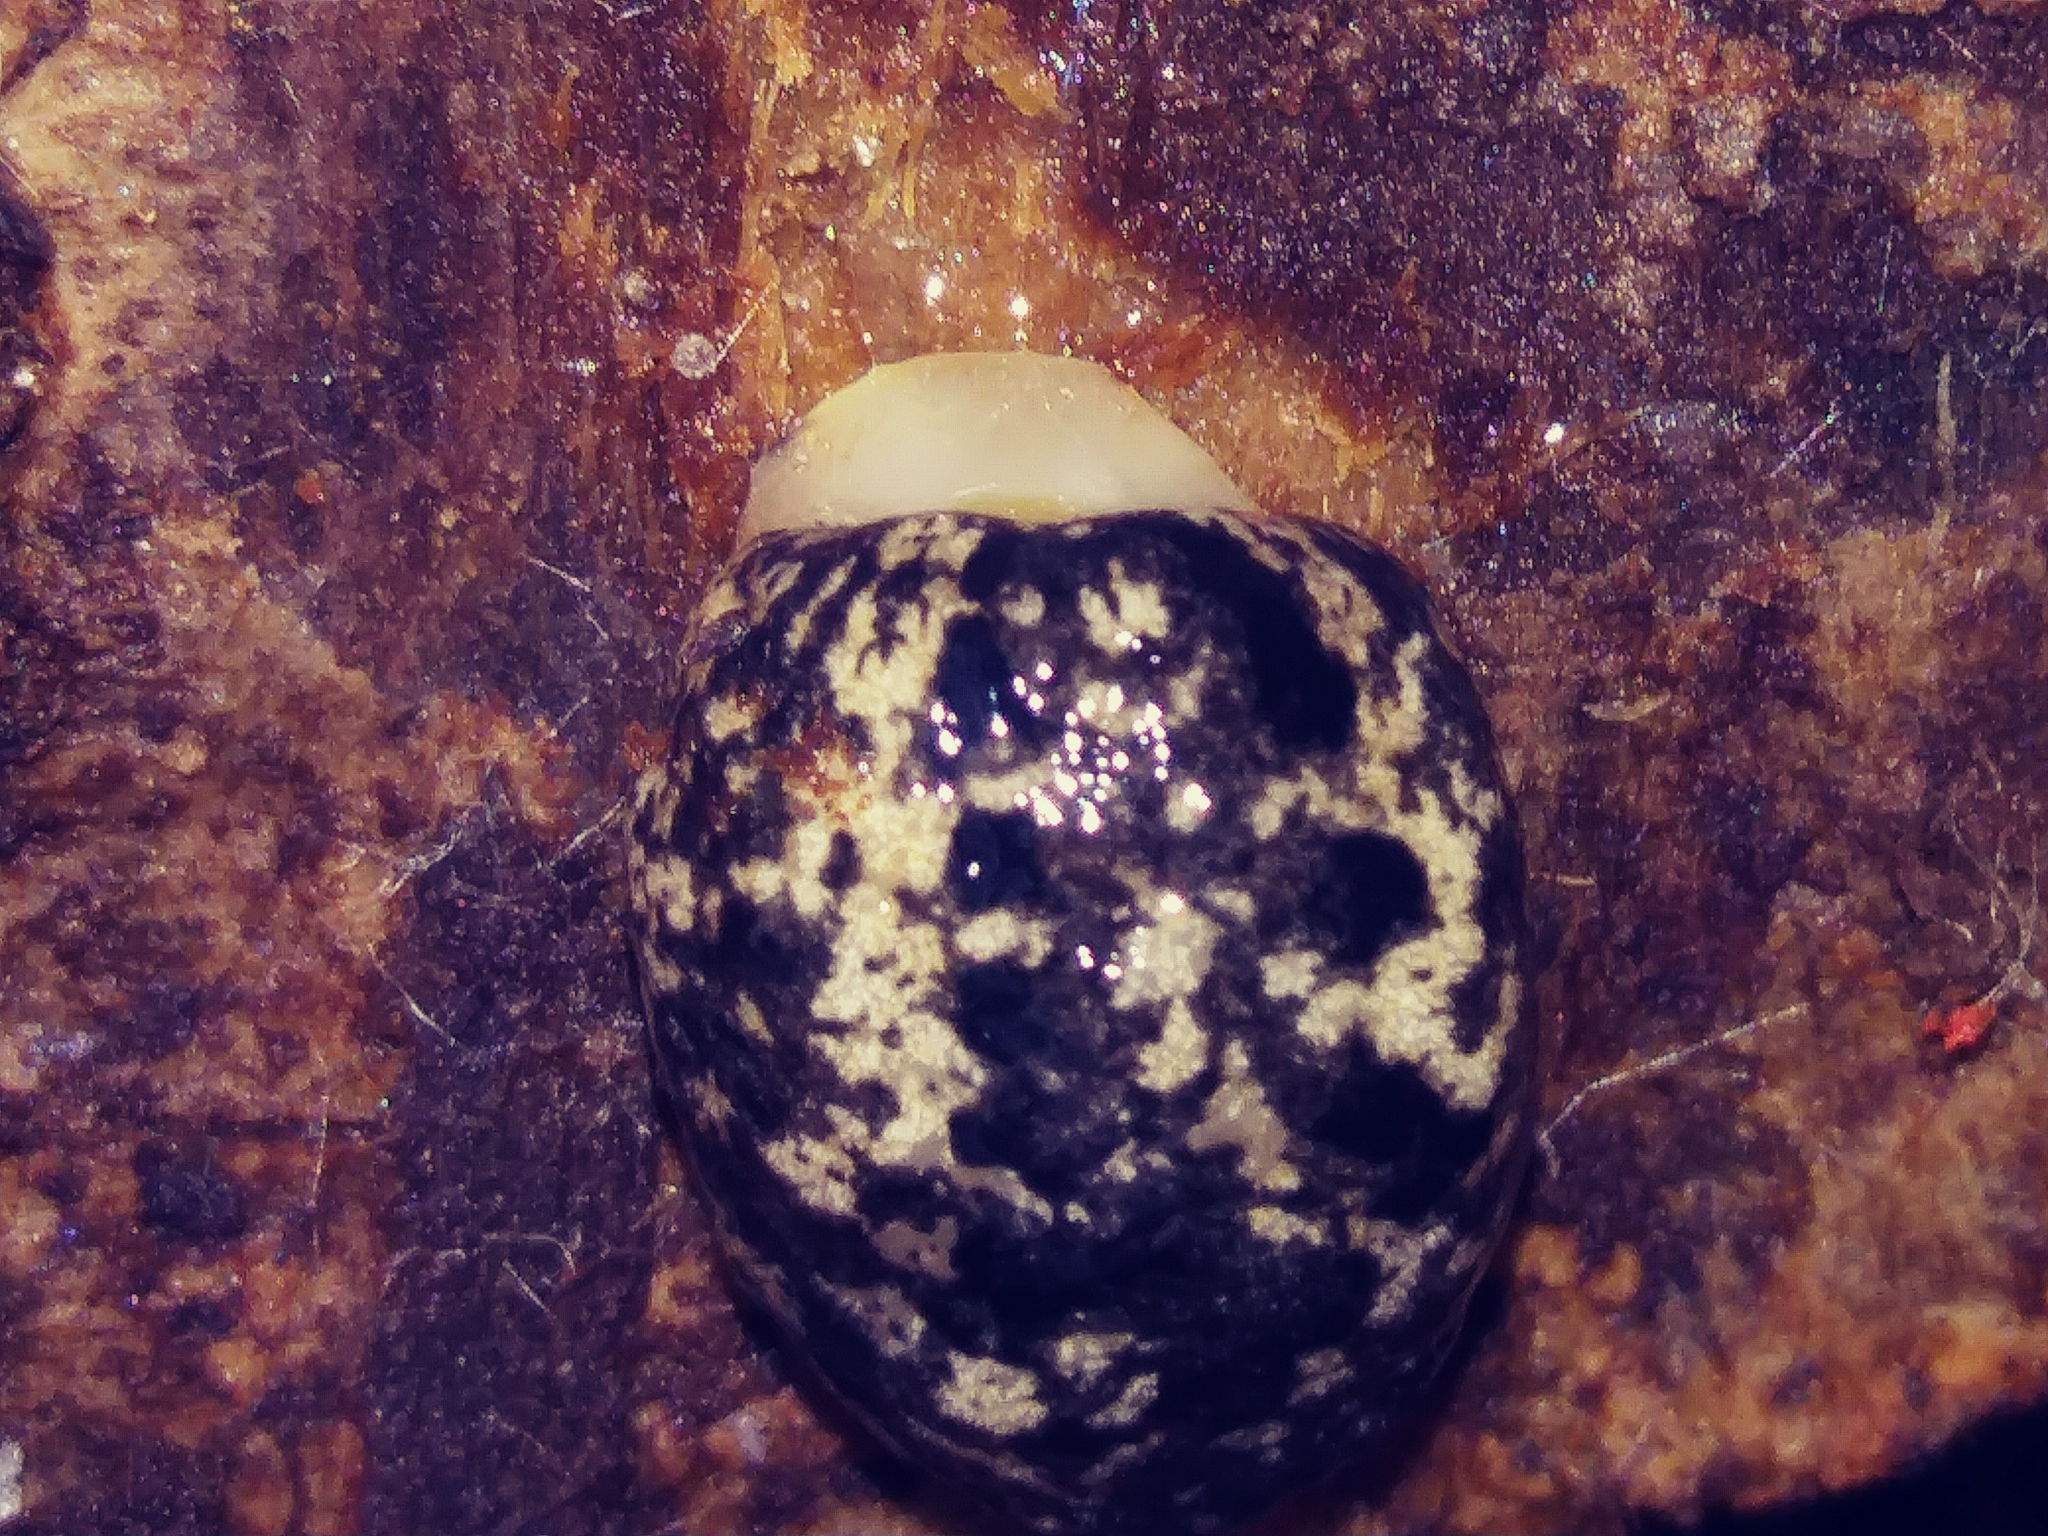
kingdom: Animalia
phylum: Mollusca
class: Gastropoda
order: Stylommatophora
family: Philomycidae
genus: Philomycus
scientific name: Philomycus carolinianus
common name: Carolina mantleslug
